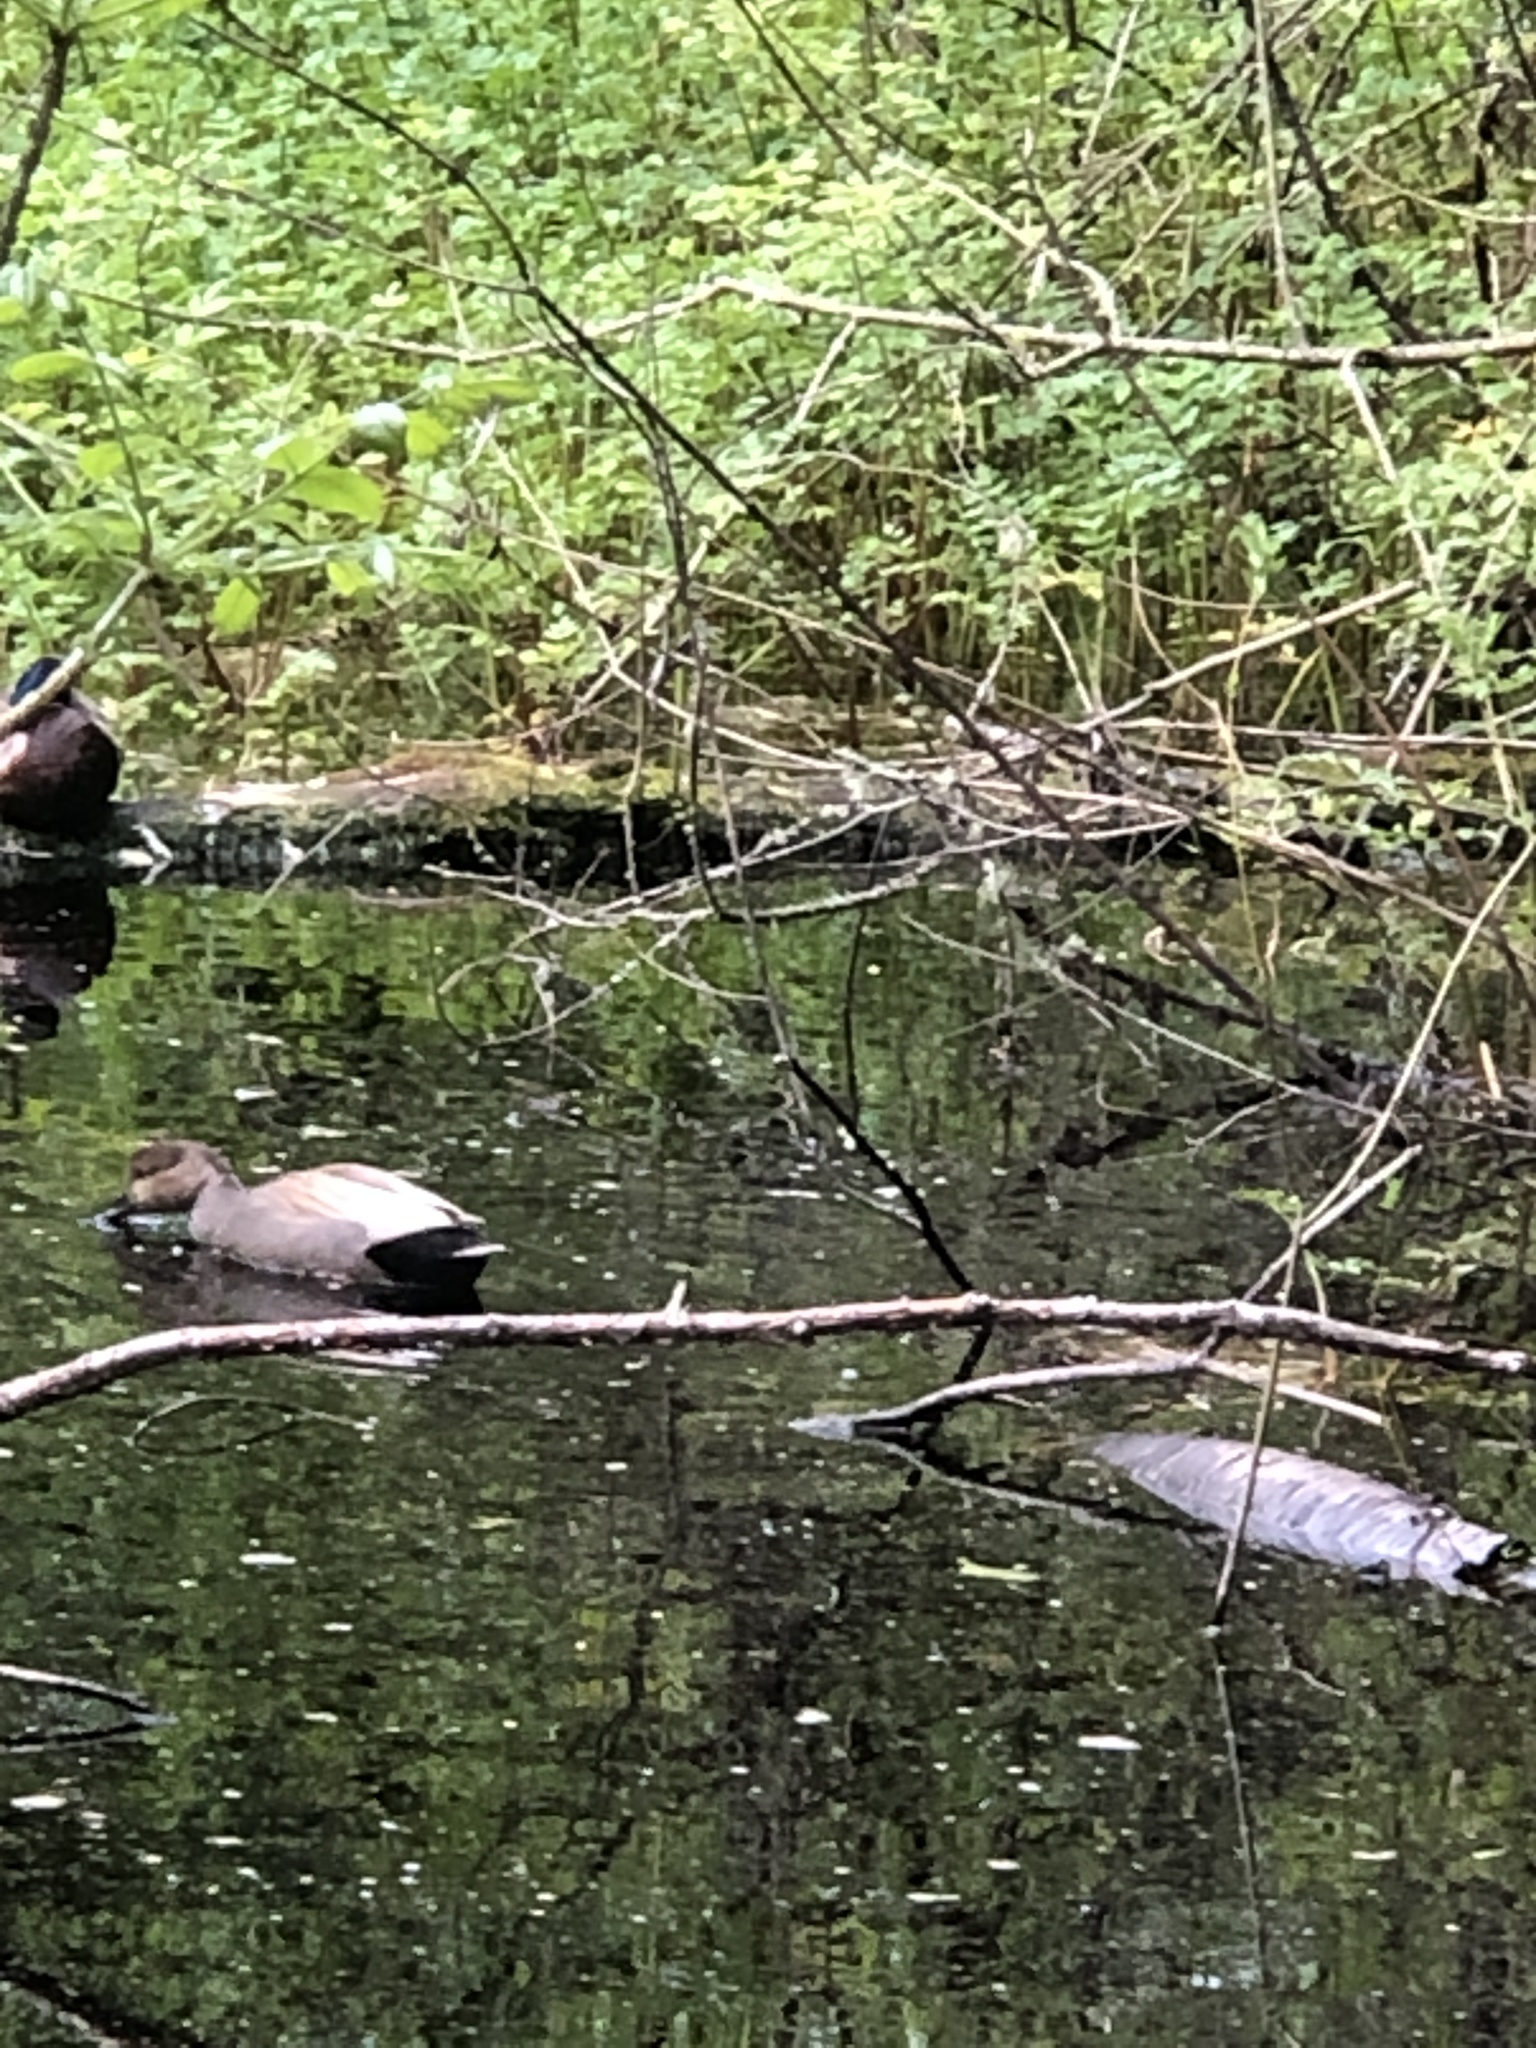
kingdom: Animalia
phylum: Chordata
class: Aves
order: Anseriformes
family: Anatidae
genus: Mareca
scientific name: Mareca strepera
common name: Gadwall
